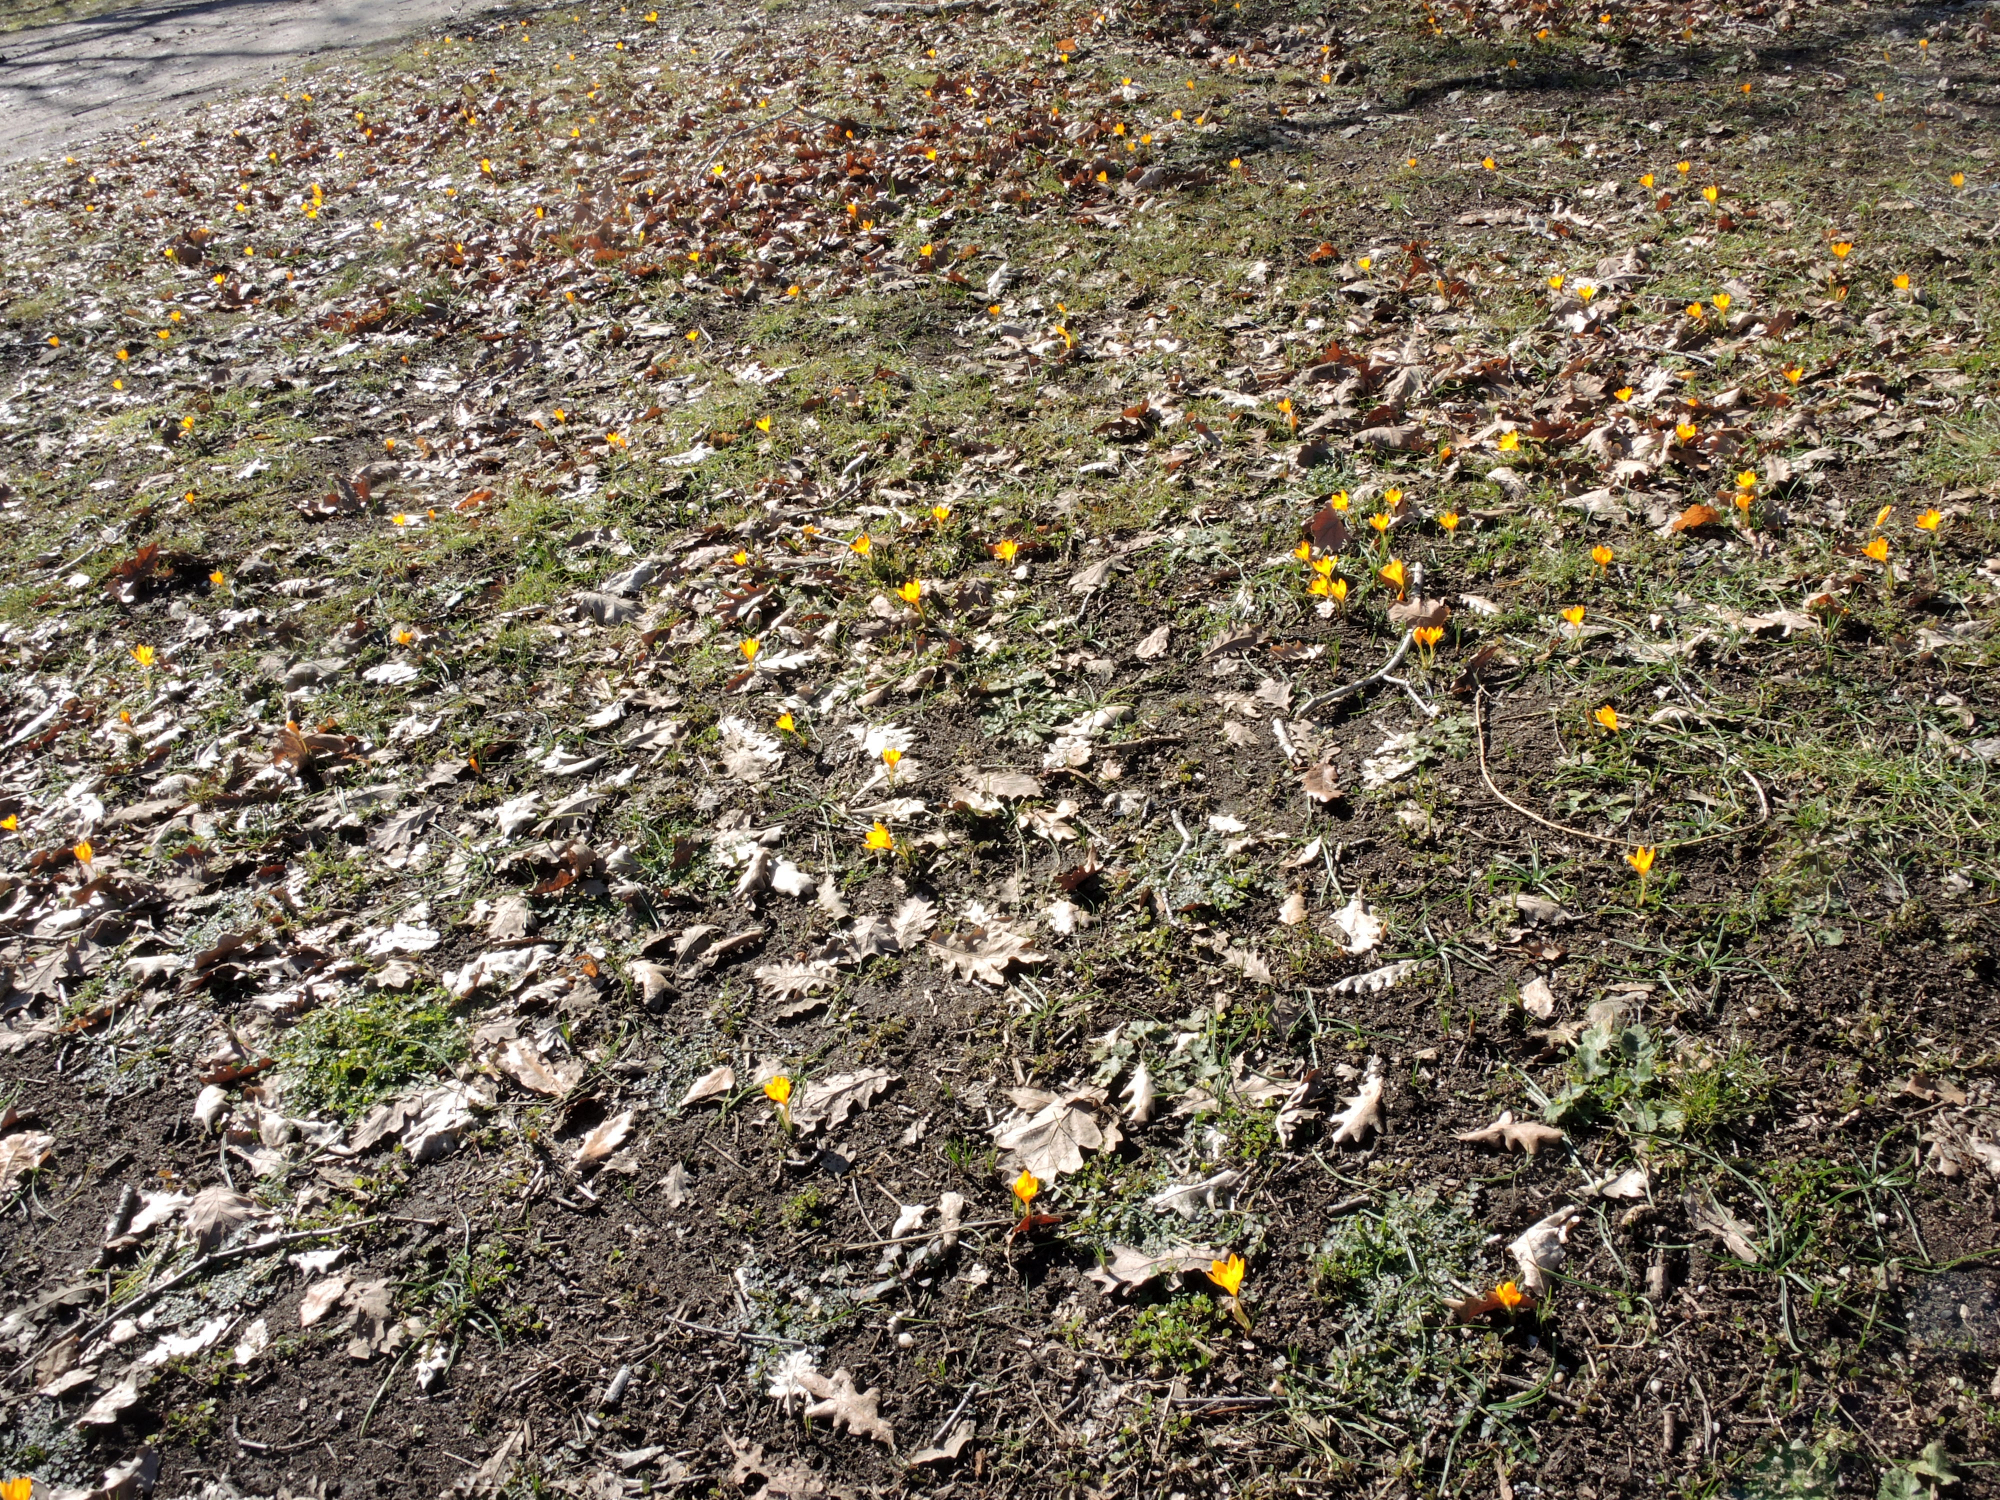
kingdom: Plantae
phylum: Tracheophyta
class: Liliopsida
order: Asparagales
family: Iridaceae
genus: Crocus
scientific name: Crocus flavus
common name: Yellow crocus
